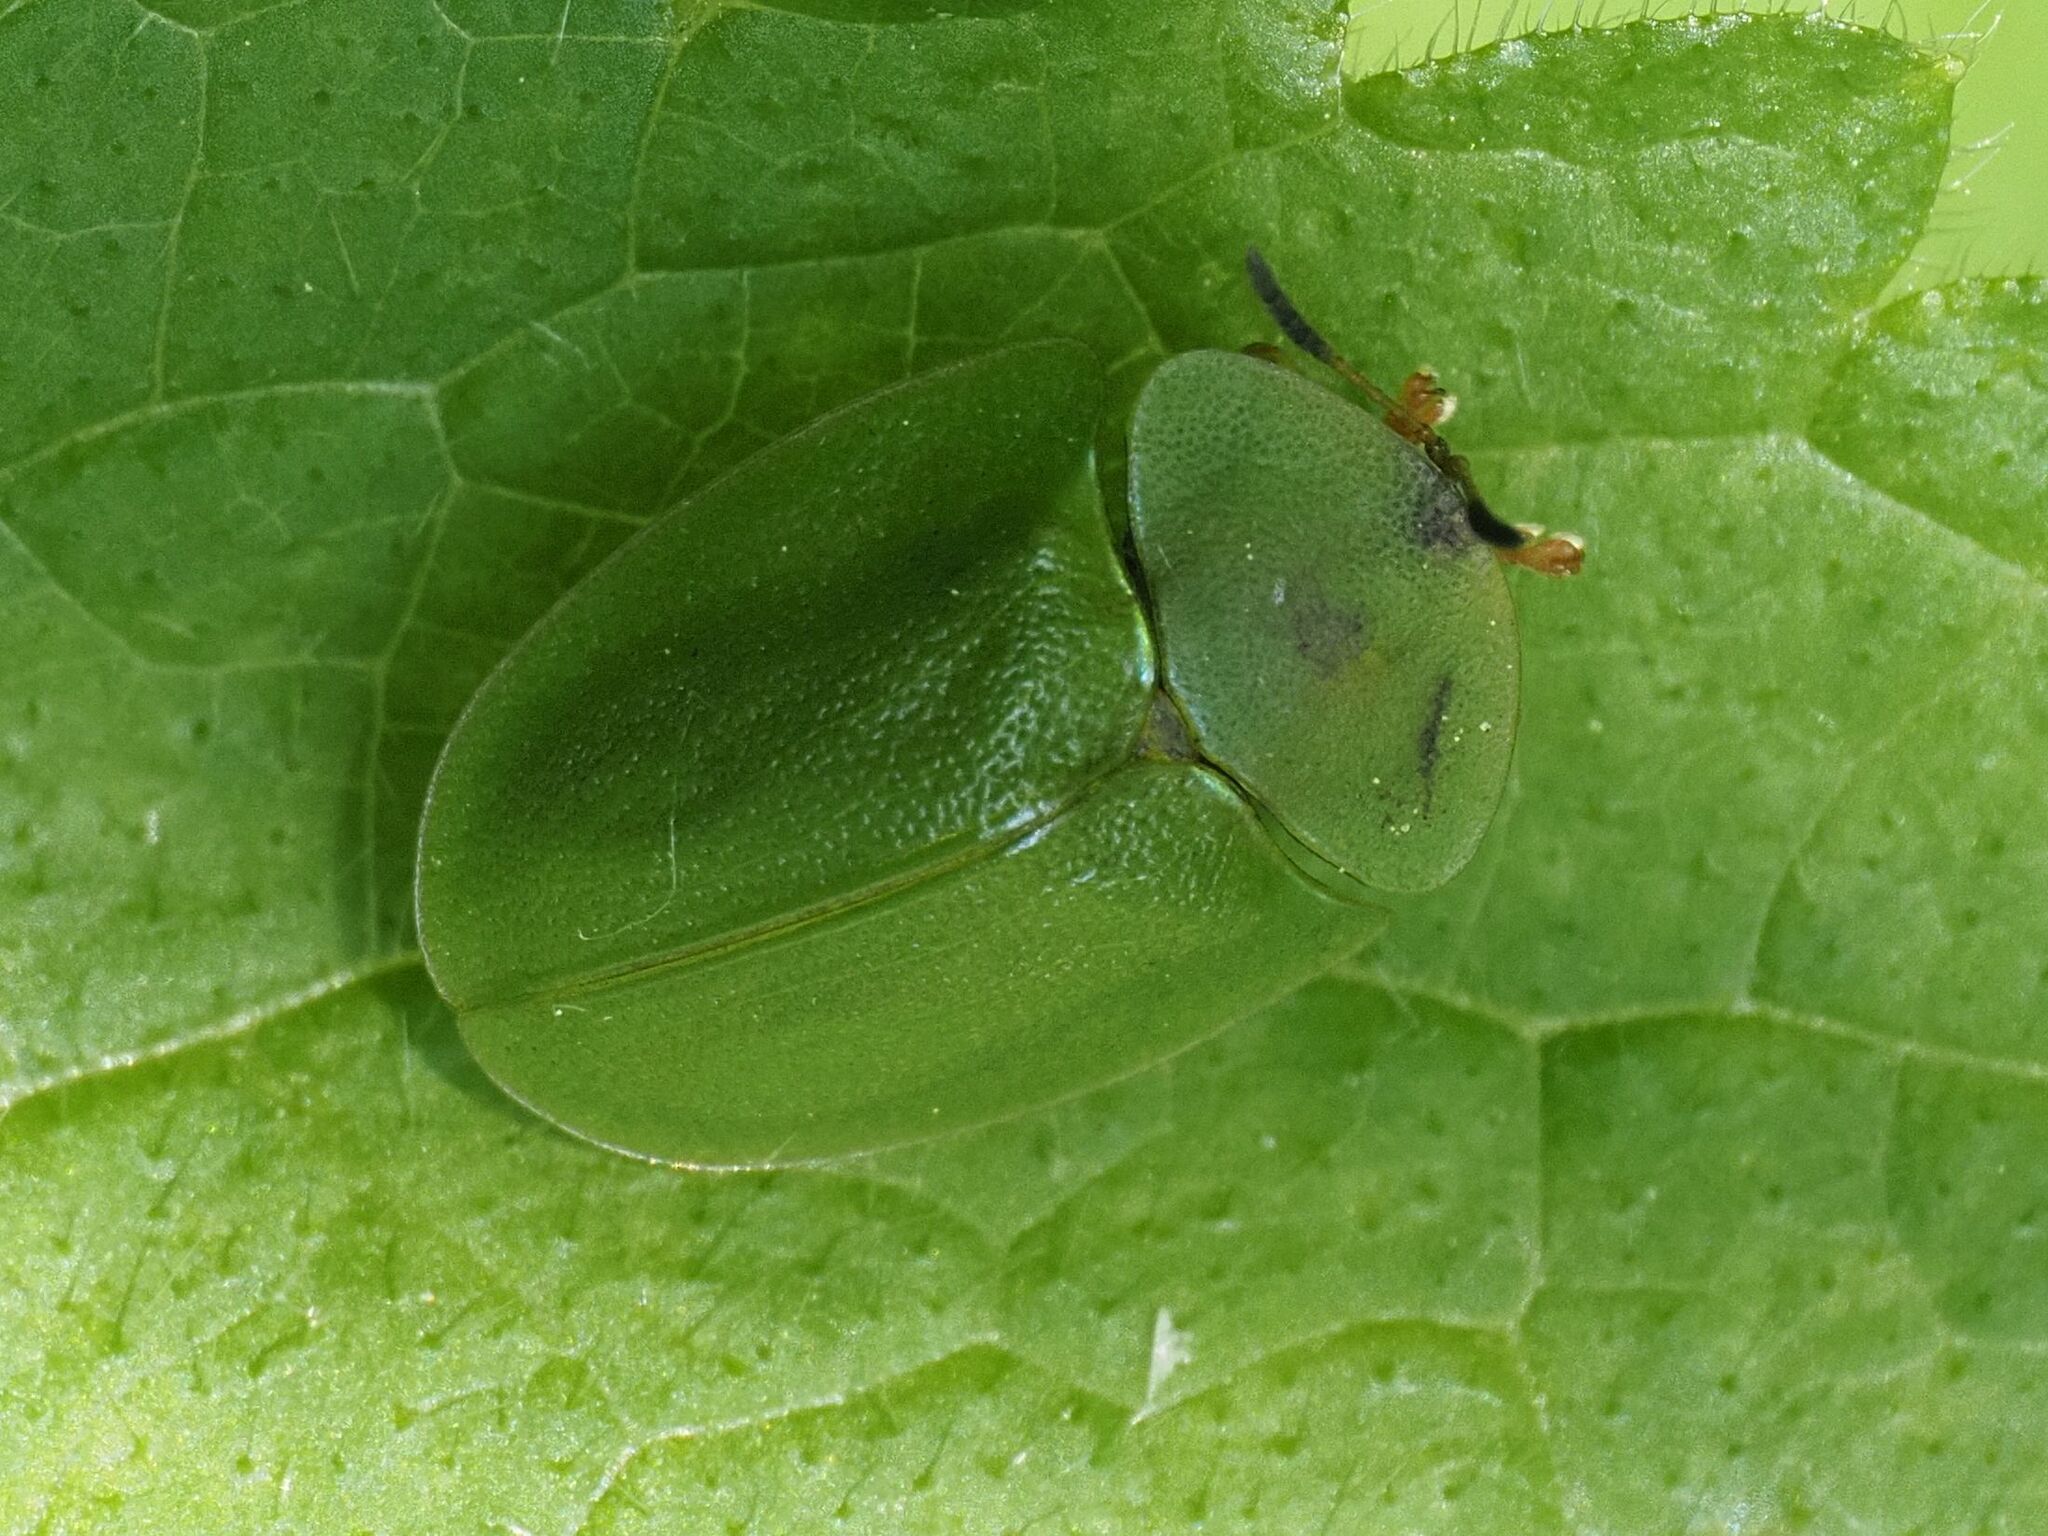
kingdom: Animalia
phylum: Arthropoda
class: Insecta
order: Coleoptera
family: Chrysomelidae
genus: Cassida
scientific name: Cassida viridis
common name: Green tortoise beetle
